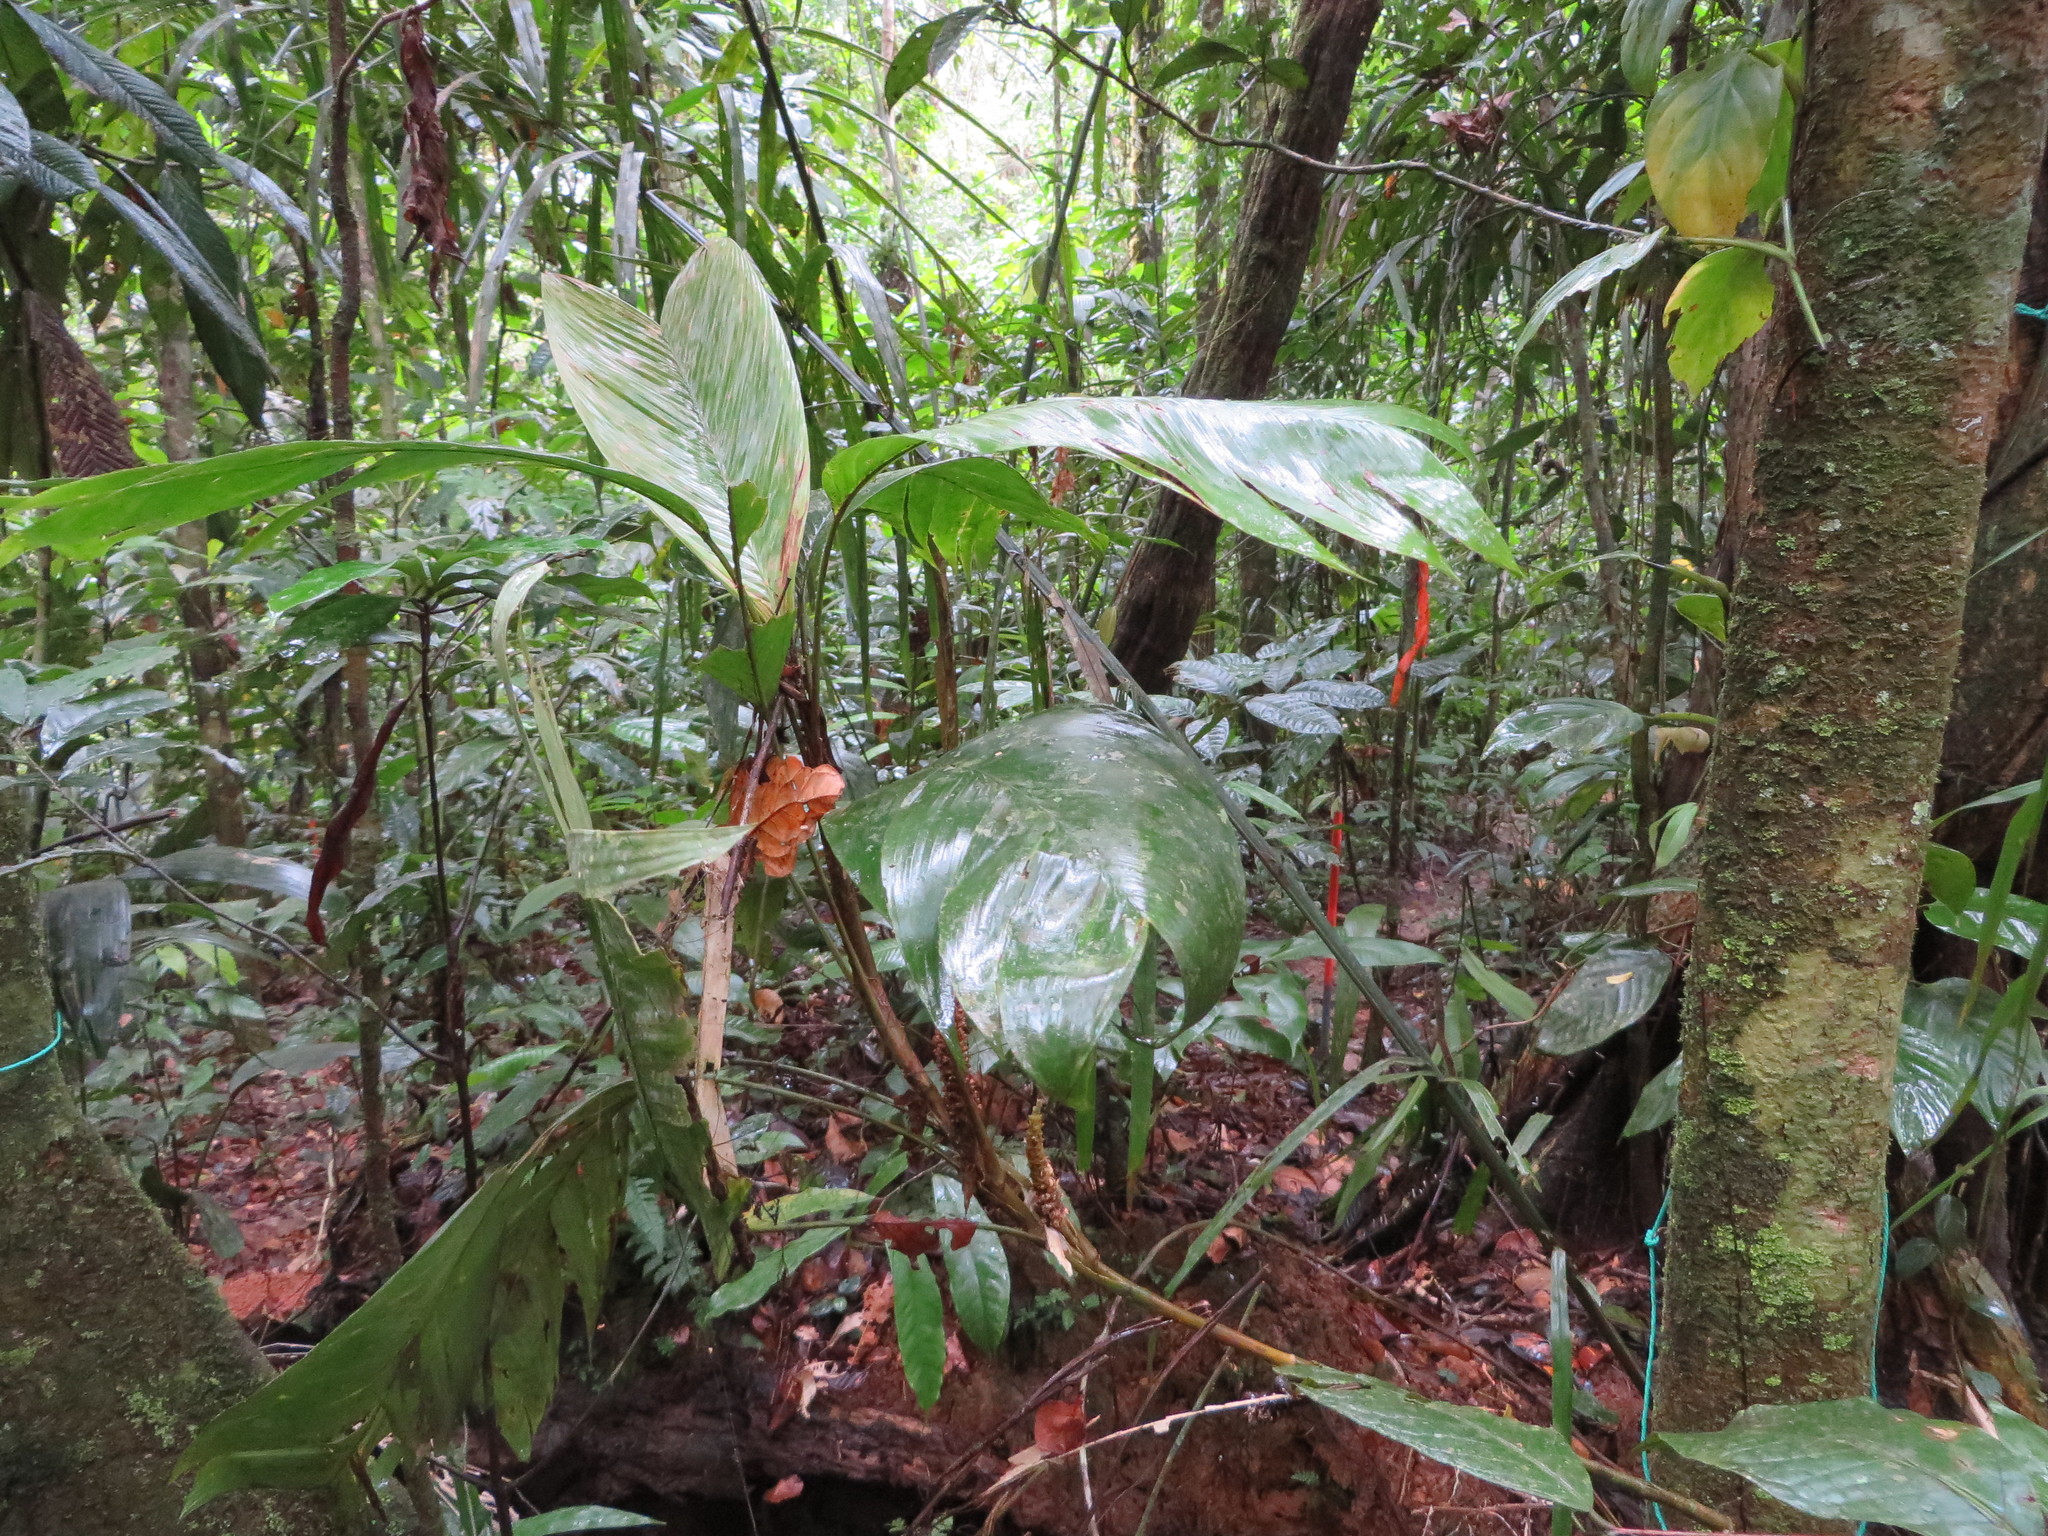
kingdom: Plantae
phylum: Tracheophyta
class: Liliopsida
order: Arecales
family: Arecaceae
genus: Geonoma
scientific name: Geonoma stricta
